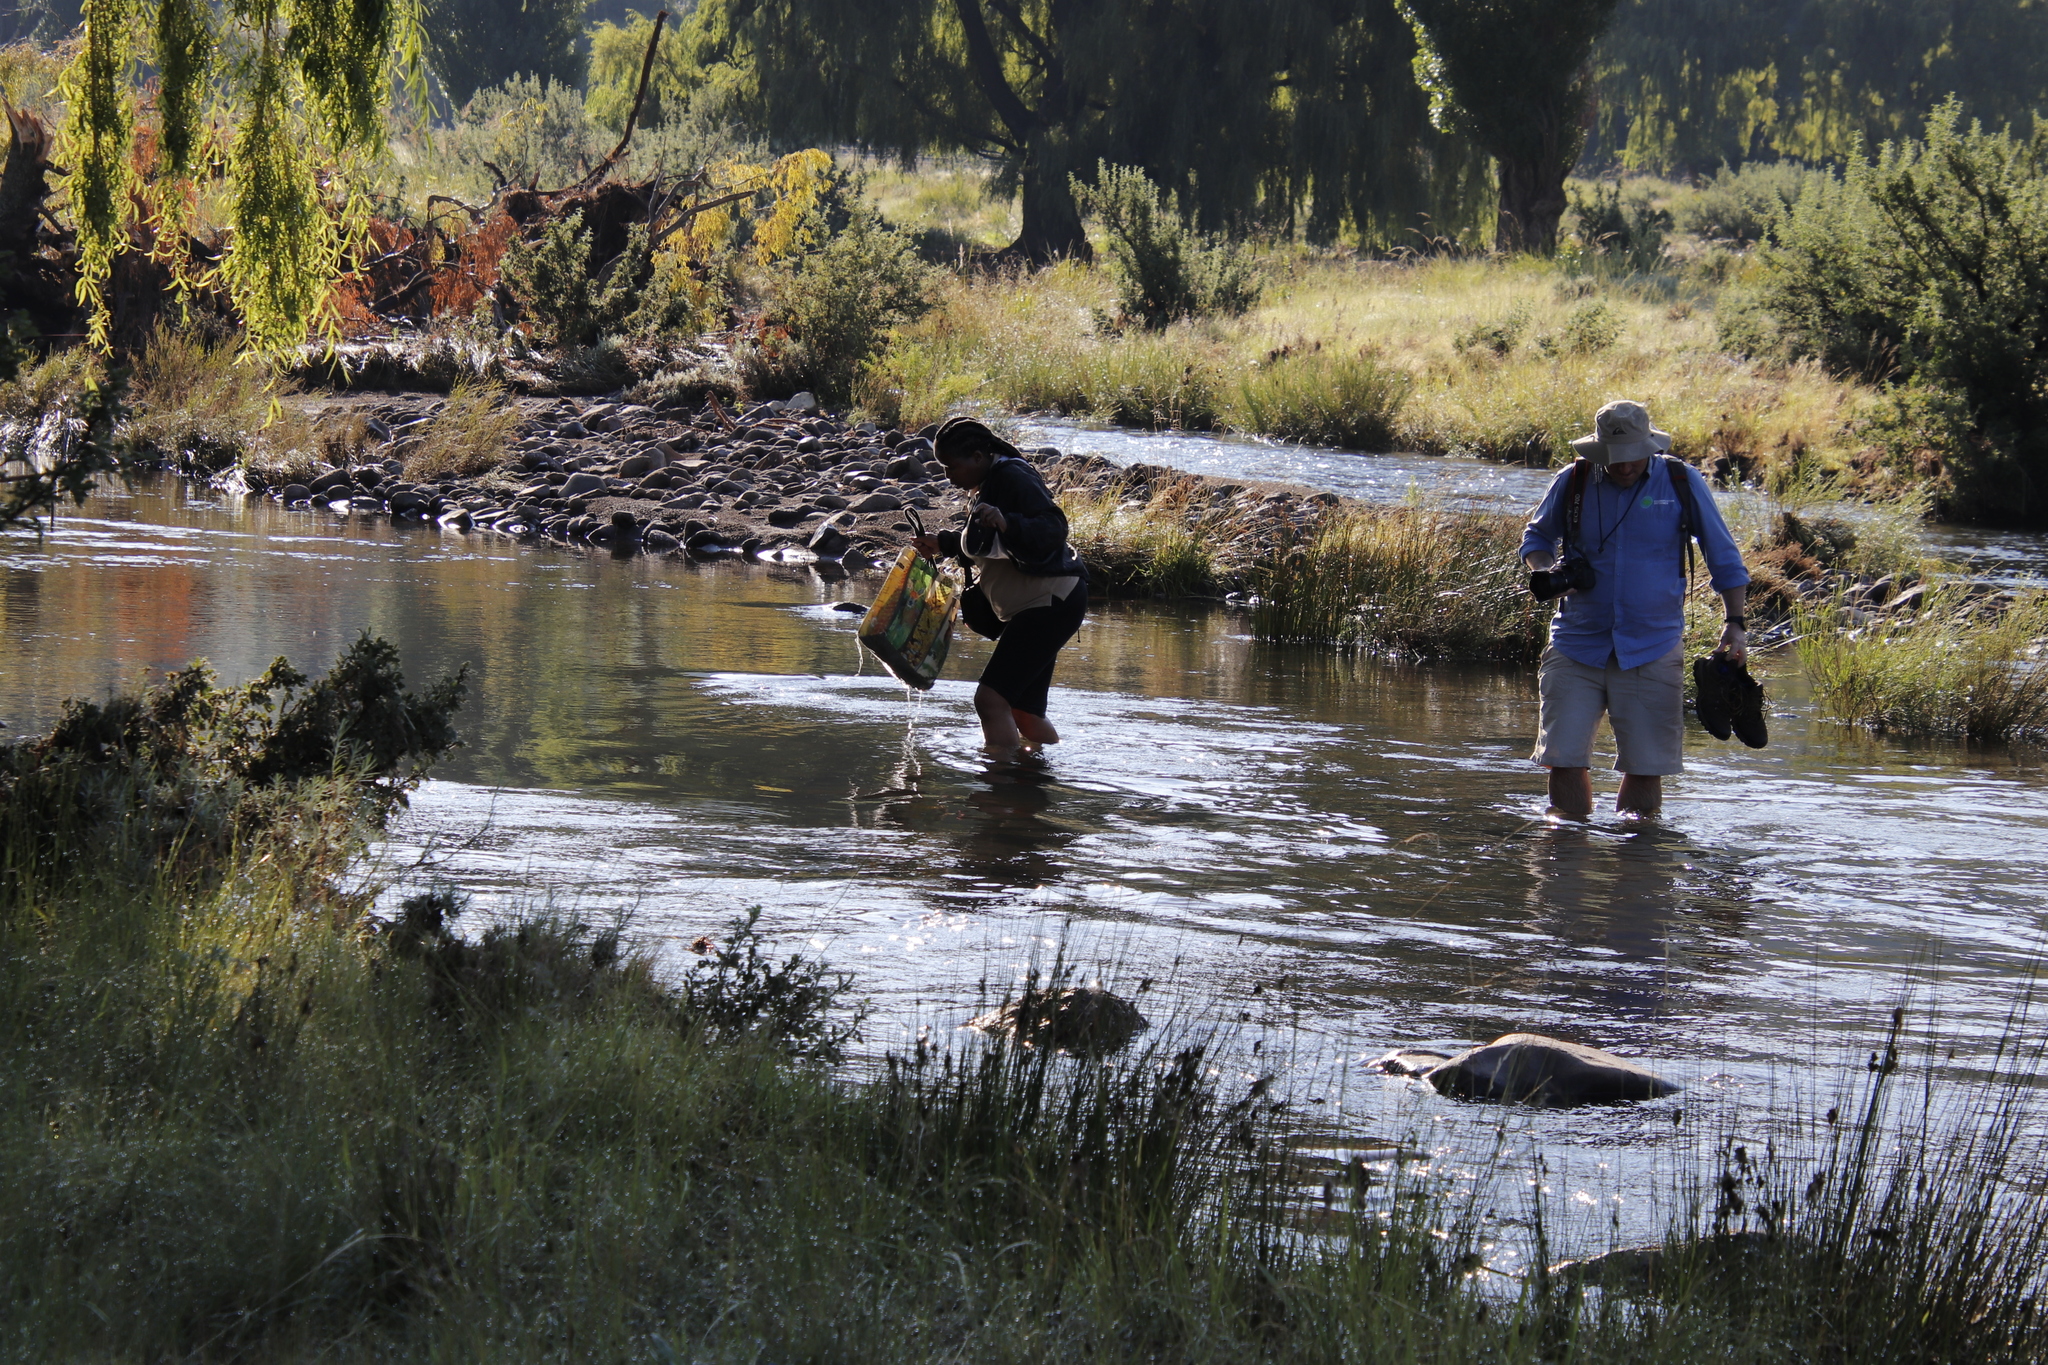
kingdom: Plantae
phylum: Tracheophyta
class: Magnoliopsida
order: Malpighiales
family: Salicaceae
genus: Salix
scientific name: Salix babylonica
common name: Weeping willow
